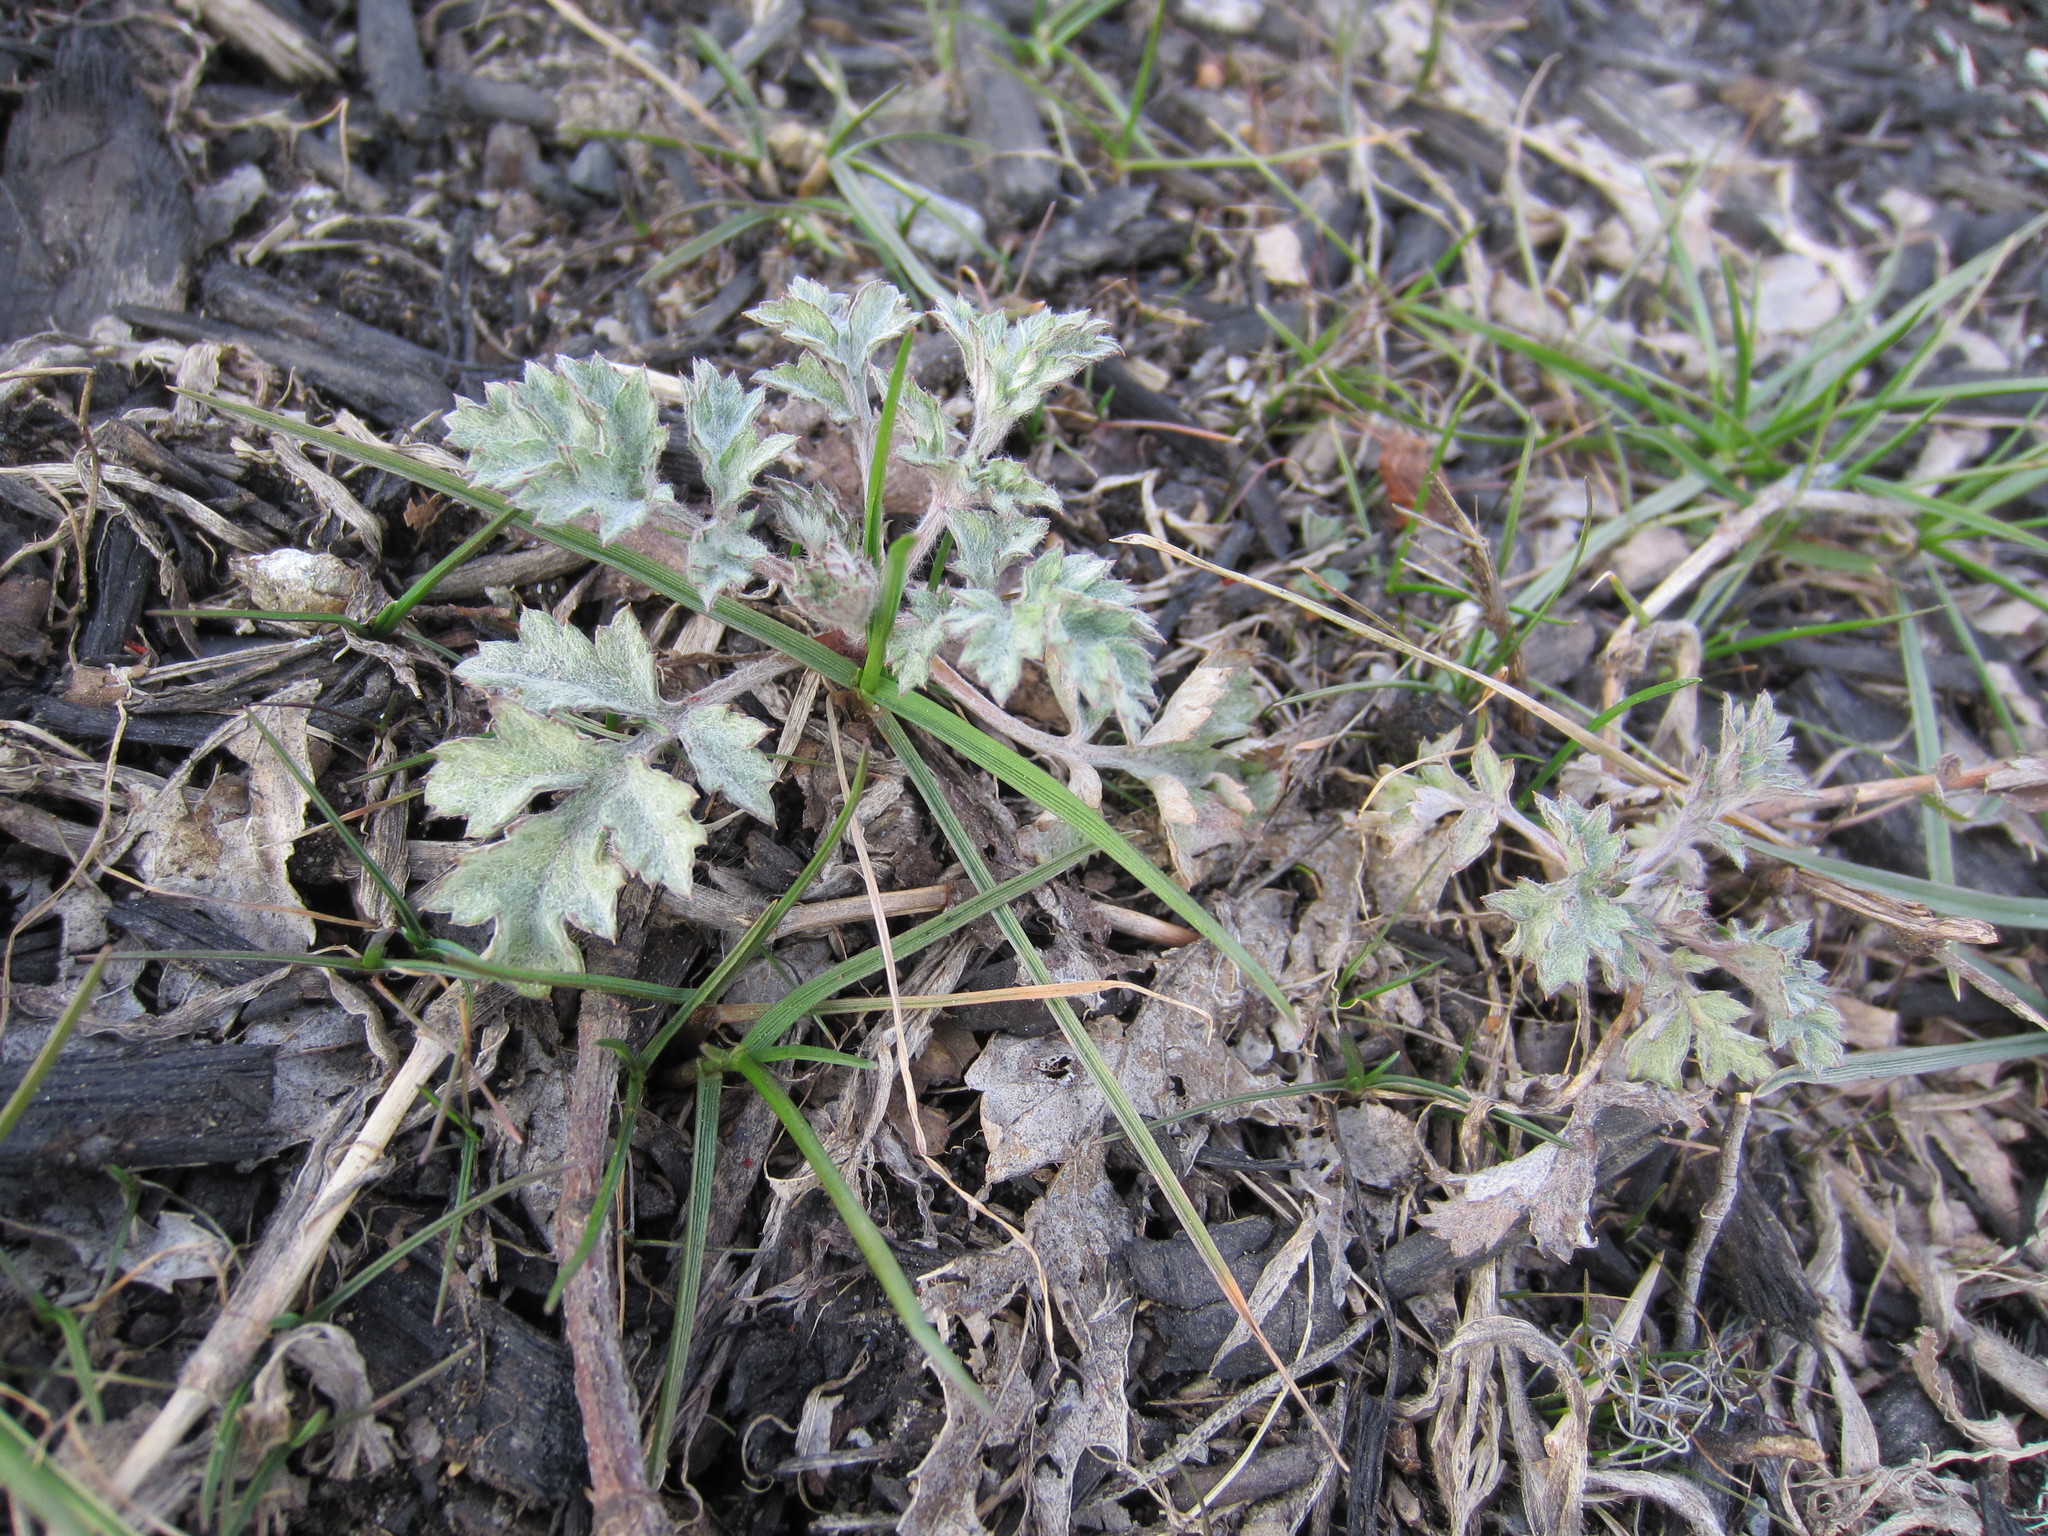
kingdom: Plantae
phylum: Tracheophyta
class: Magnoliopsida
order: Asterales
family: Asteraceae
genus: Artemisia
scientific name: Artemisia vulgaris
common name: Mugwort
